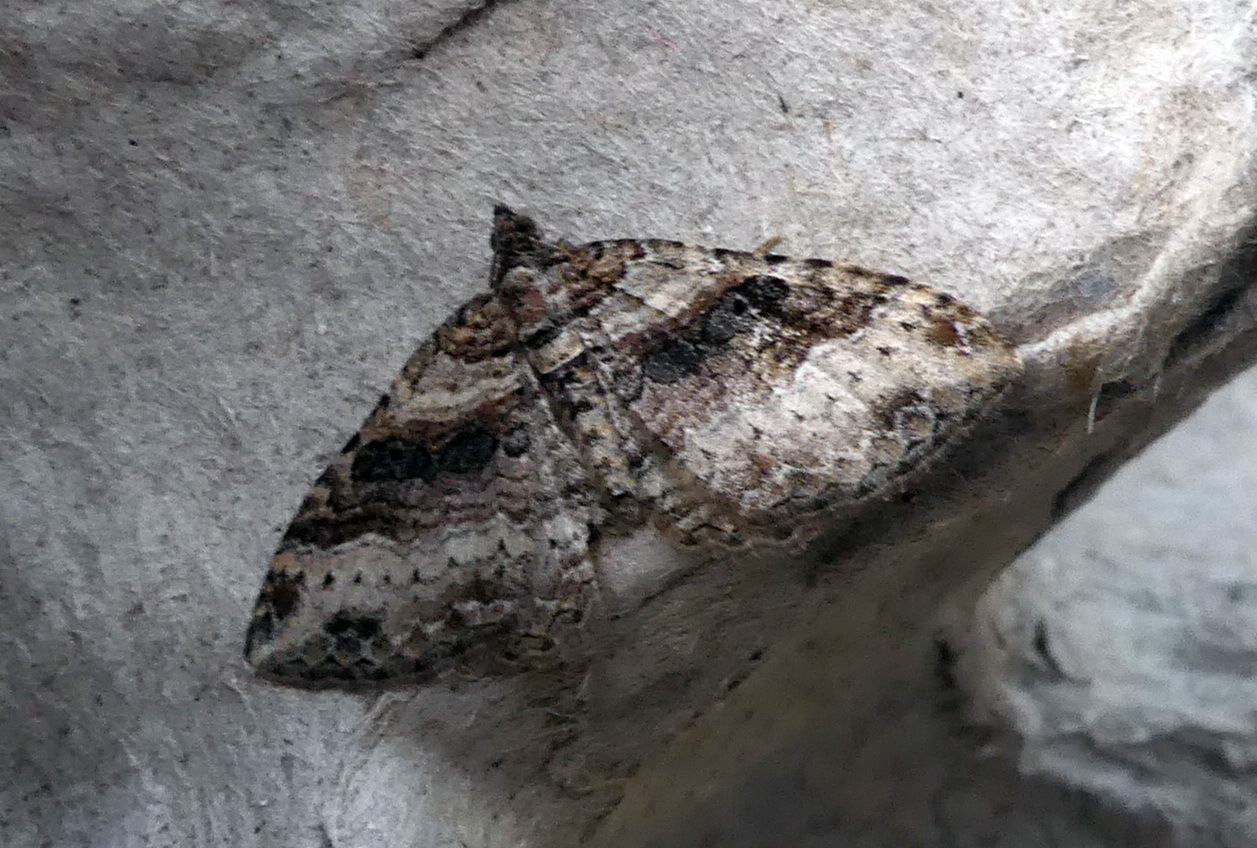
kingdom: Animalia
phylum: Arthropoda
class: Insecta
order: Lepidoptera
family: Geometridae
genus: Costaconvexa
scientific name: Costaconvexa centrostrigaria
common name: Bent-line carpet
